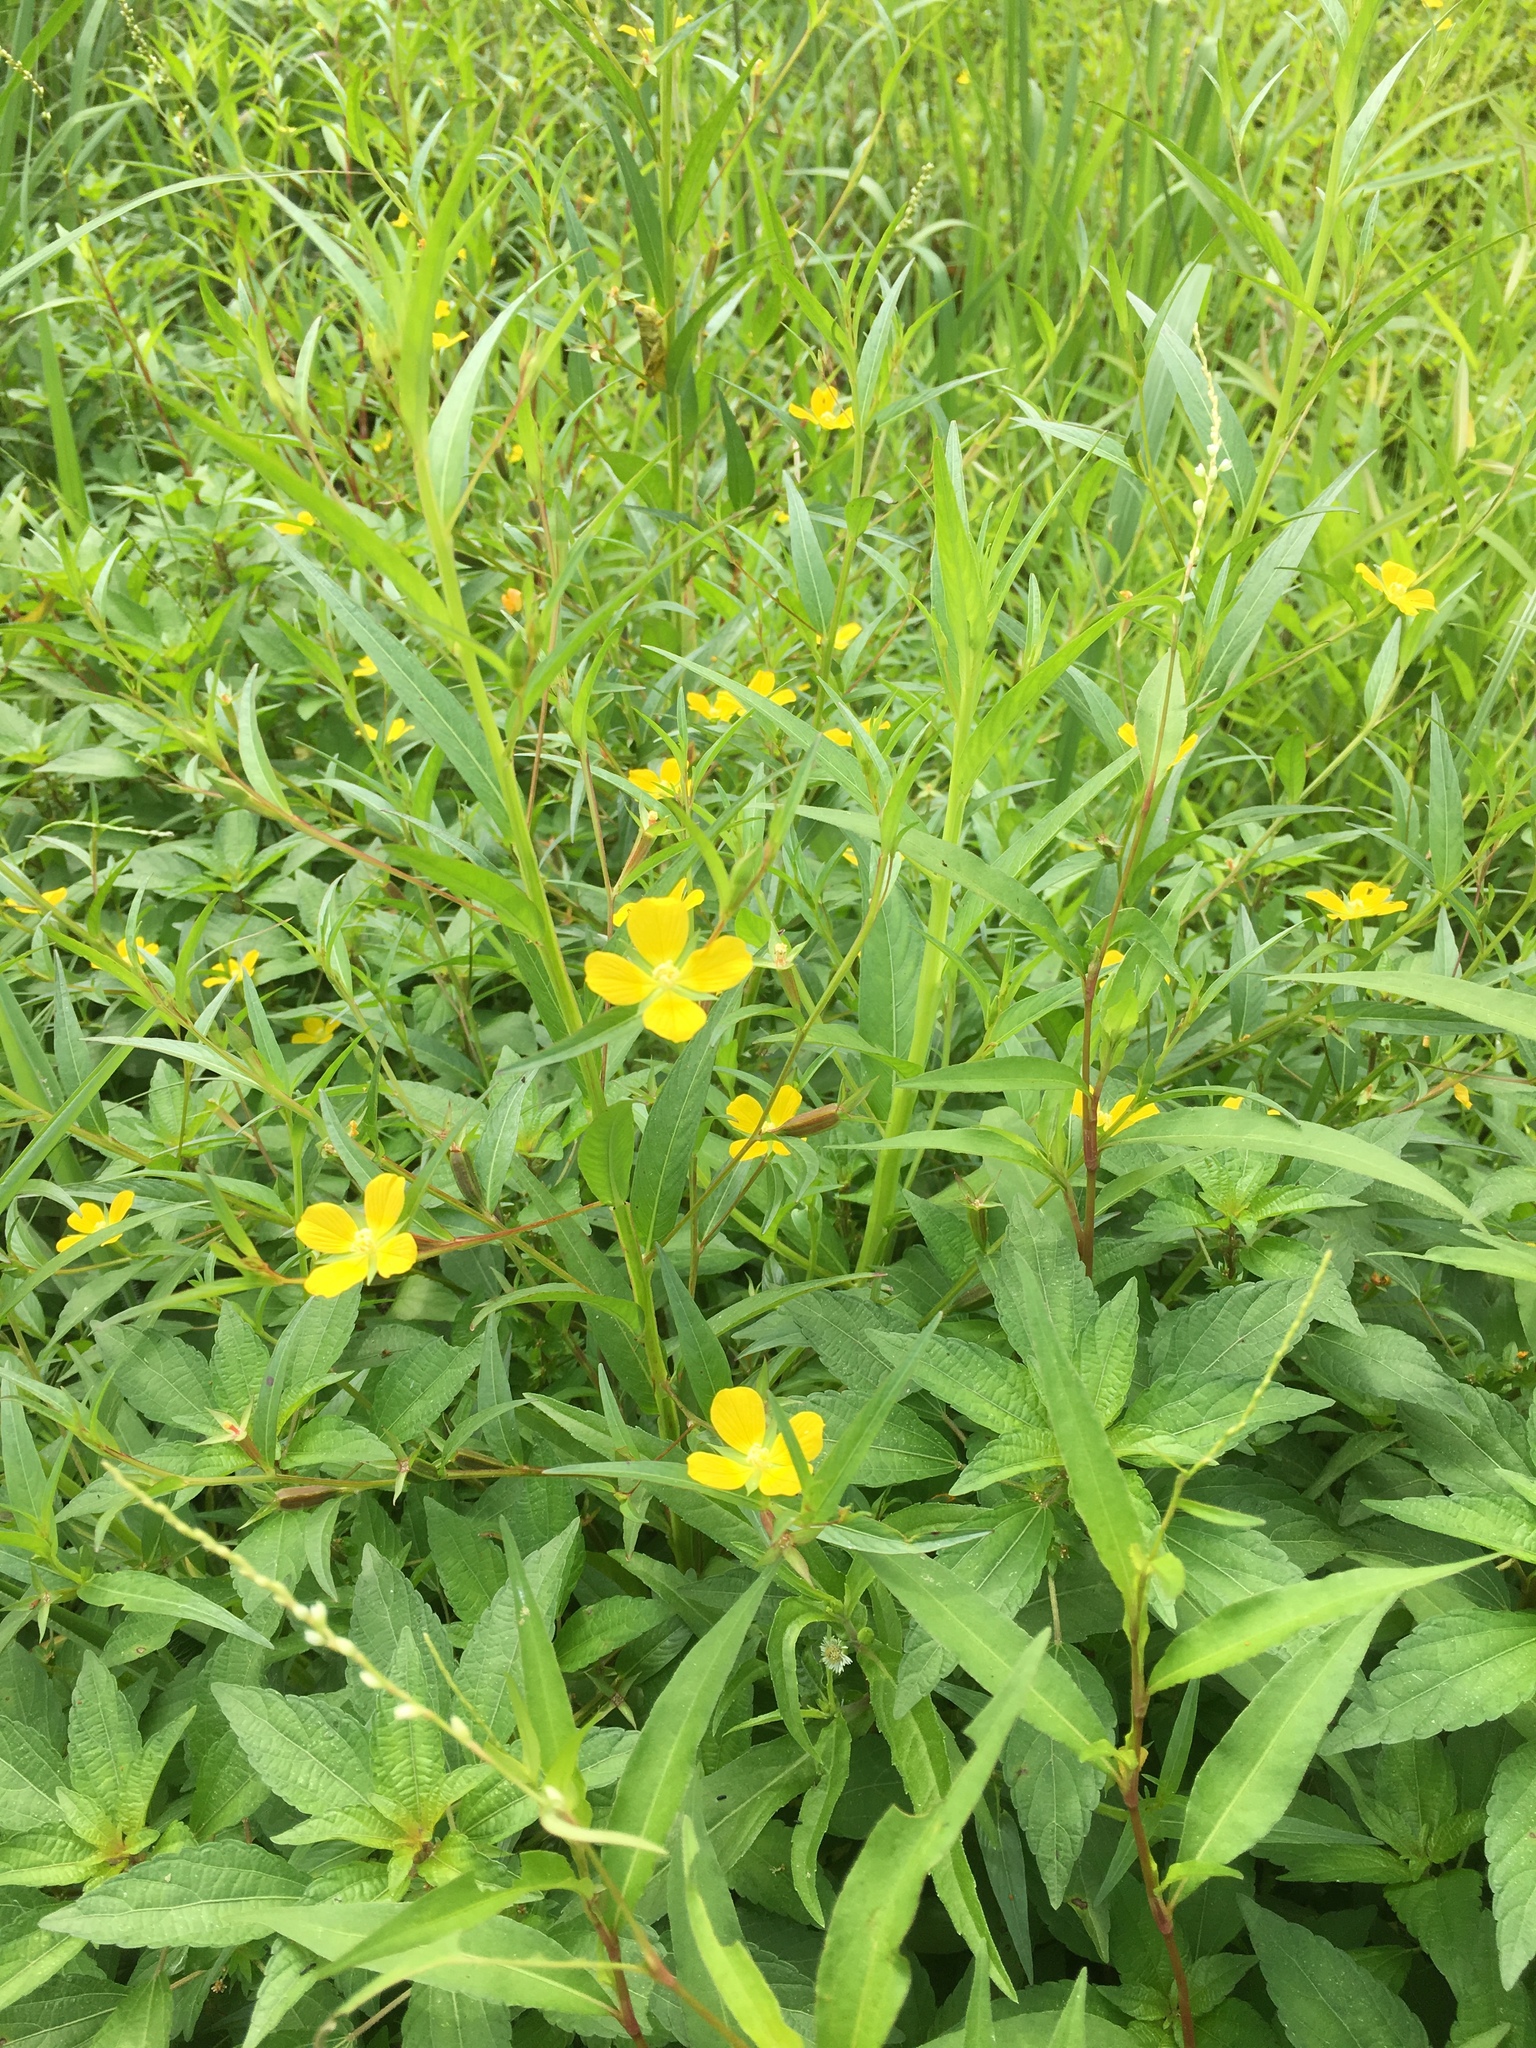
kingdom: Plantae
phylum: Tracheophyta
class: Magnoliopsida
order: Myrtales
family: Onagraceae
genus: Ludwigia
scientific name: Ludwigia decurrens
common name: Winged water-primrose
